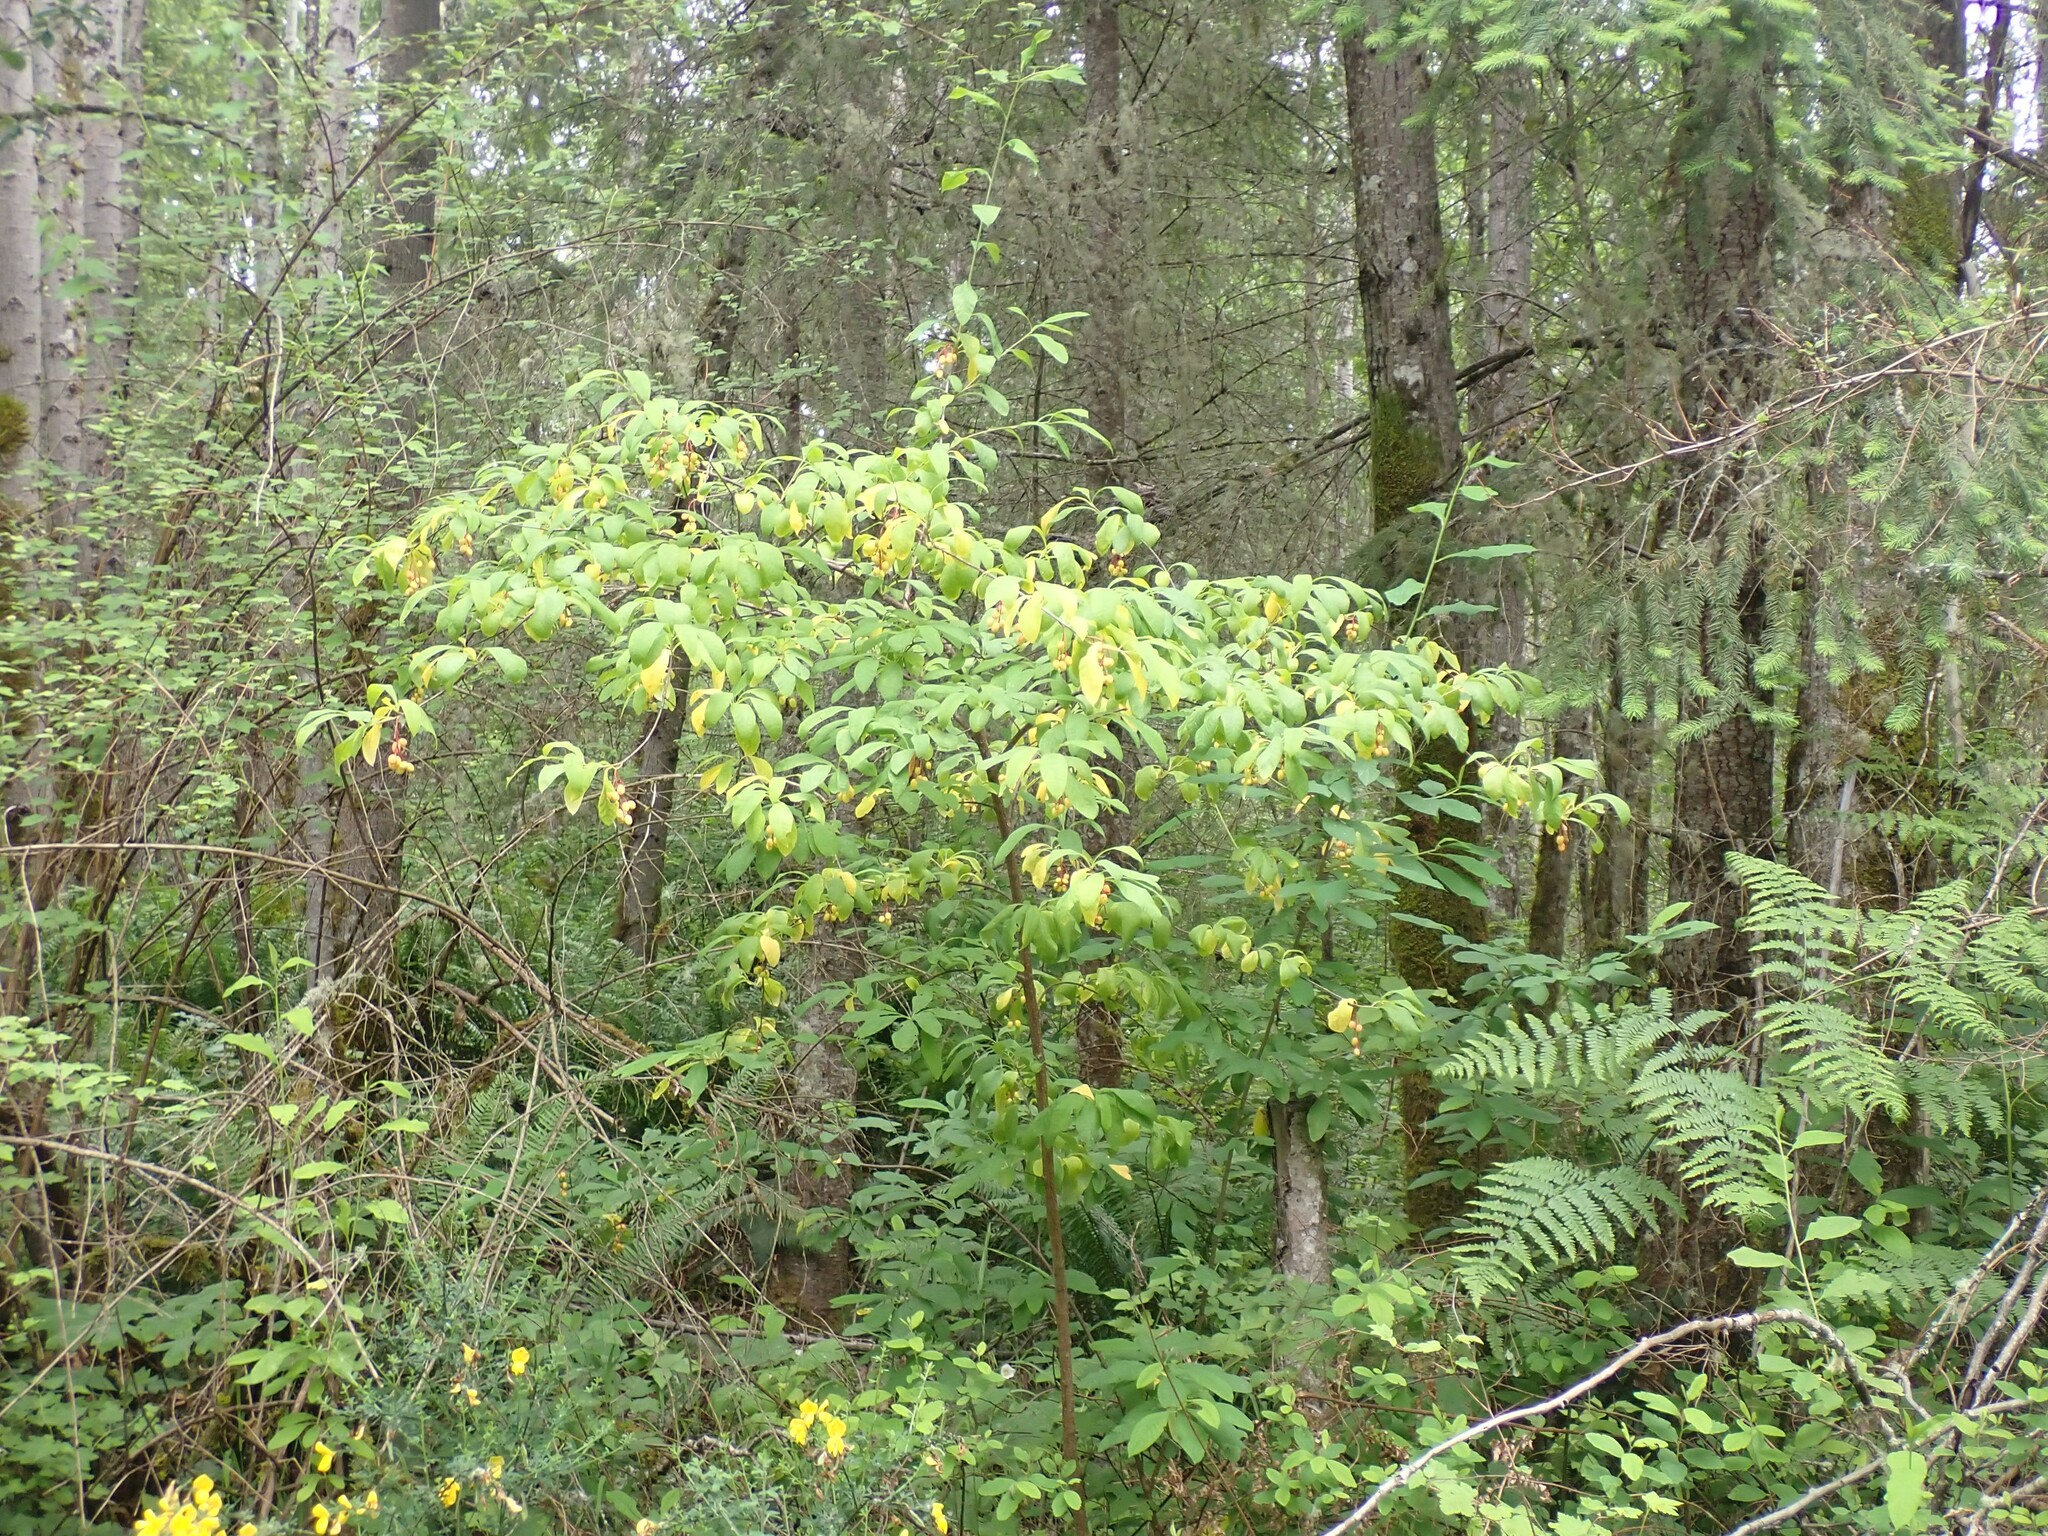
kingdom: Plantae
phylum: Tracheophyta
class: Magnoliopsida
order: Rosales
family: Rosaceae
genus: Oemleria
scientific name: Oemleria cerasiformis
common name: Osoberry
